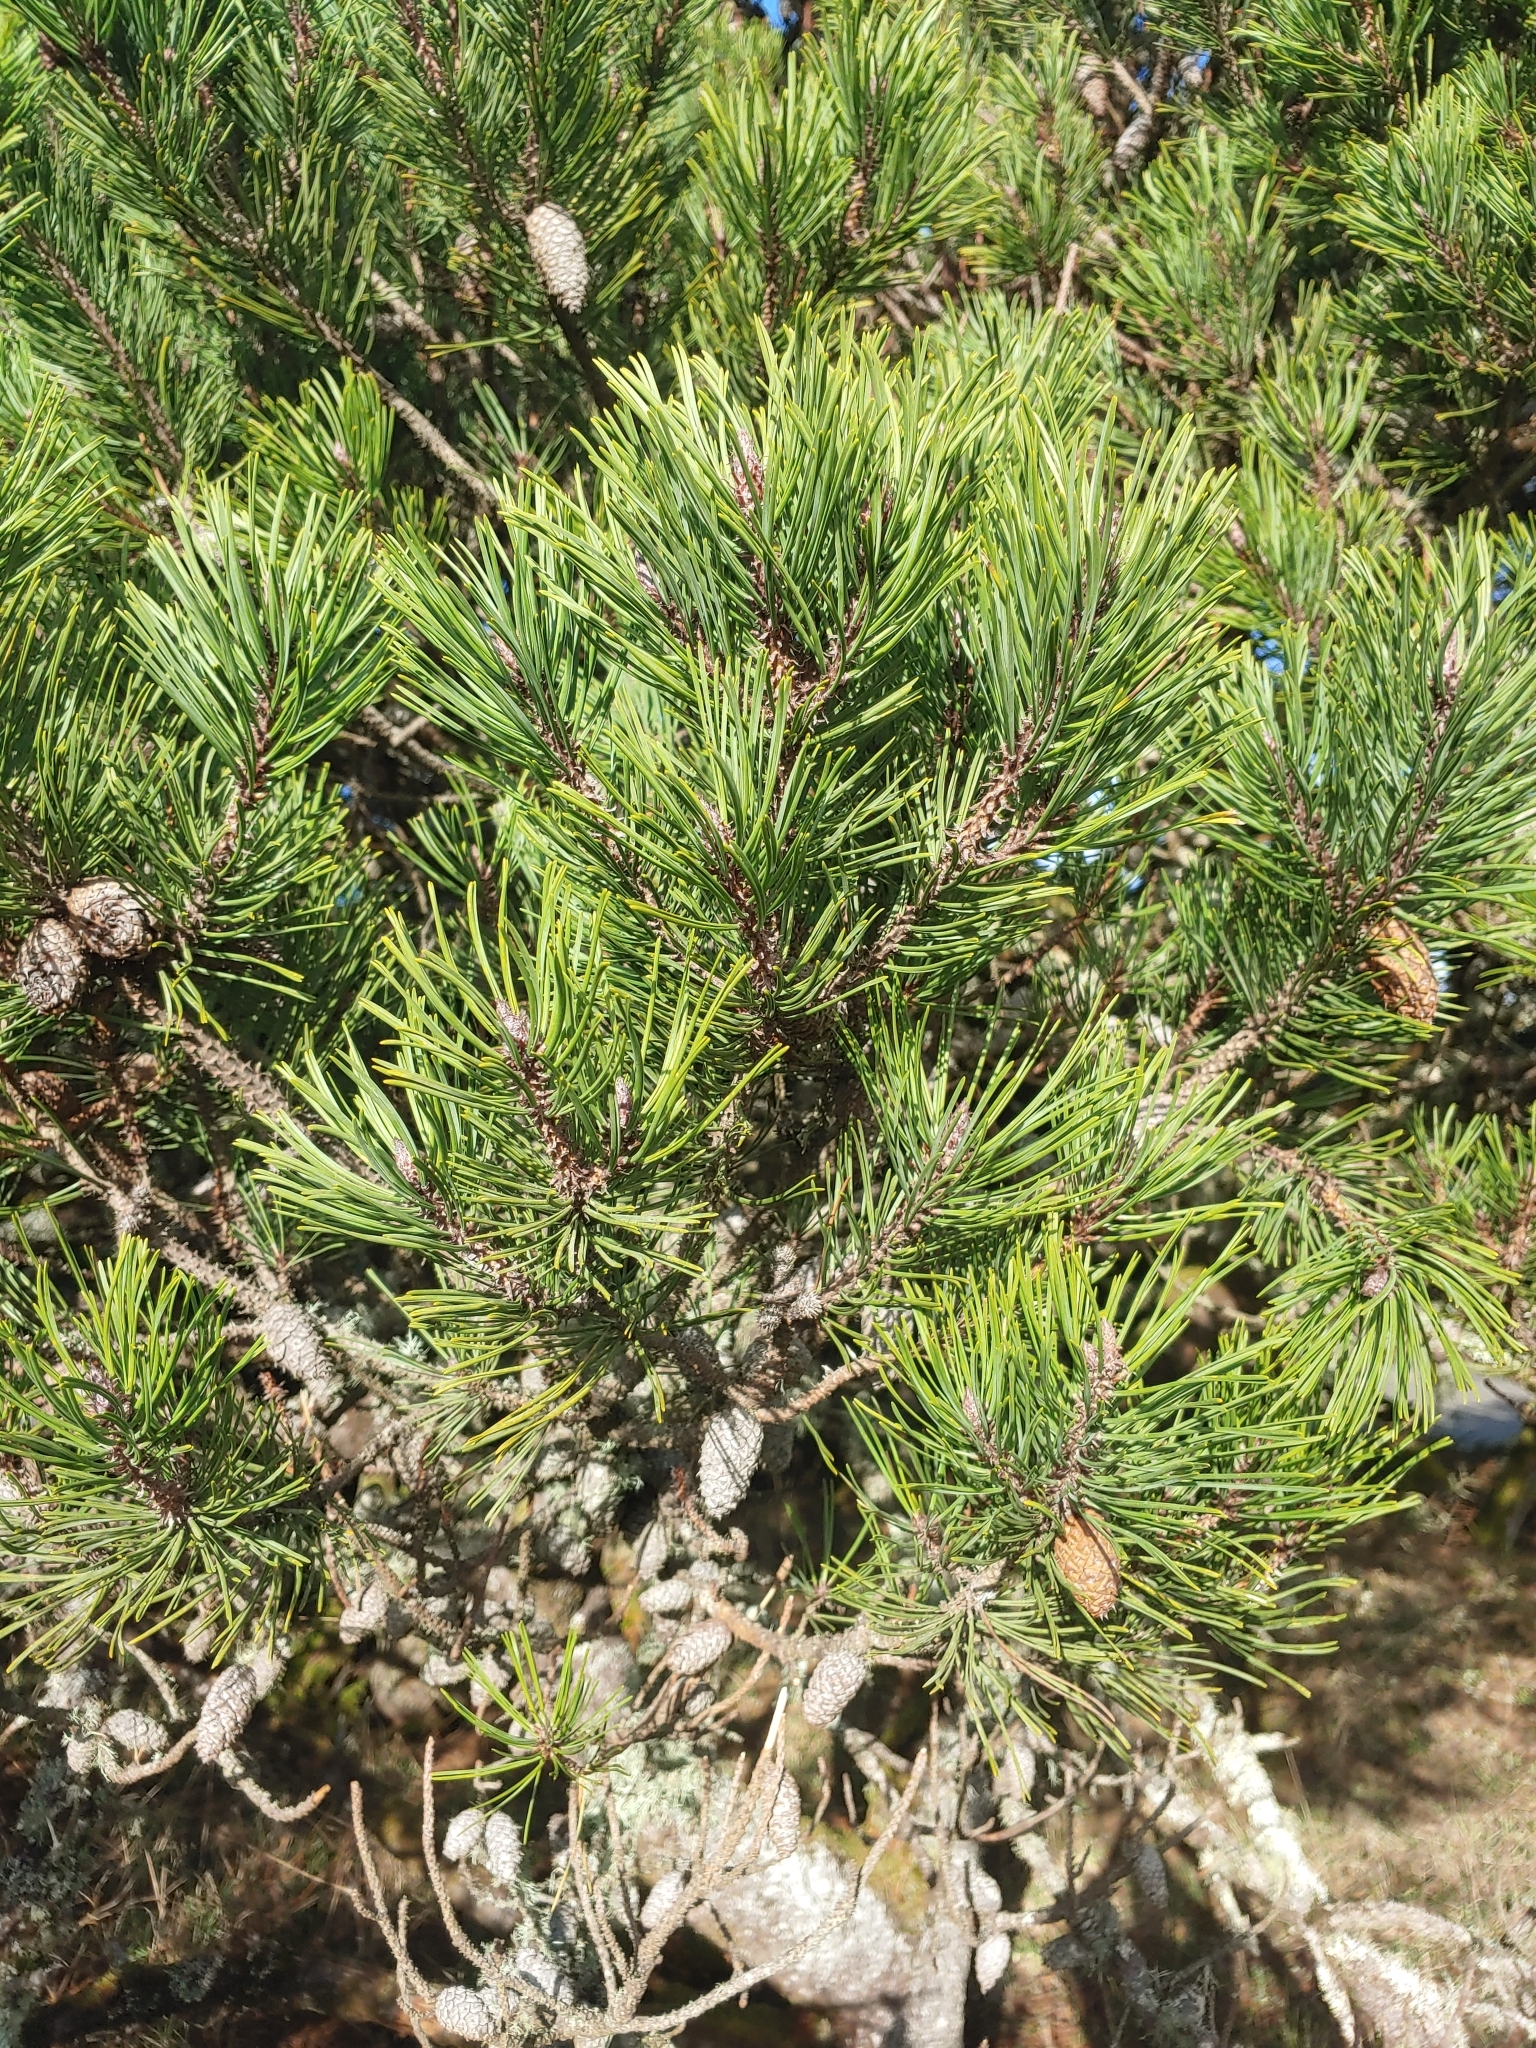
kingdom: Plantae
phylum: Tracheophyta
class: Pinopsida
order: Pinales
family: Pinaceae
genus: Pinus
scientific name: Pinus contorta
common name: Lodgepole pine
